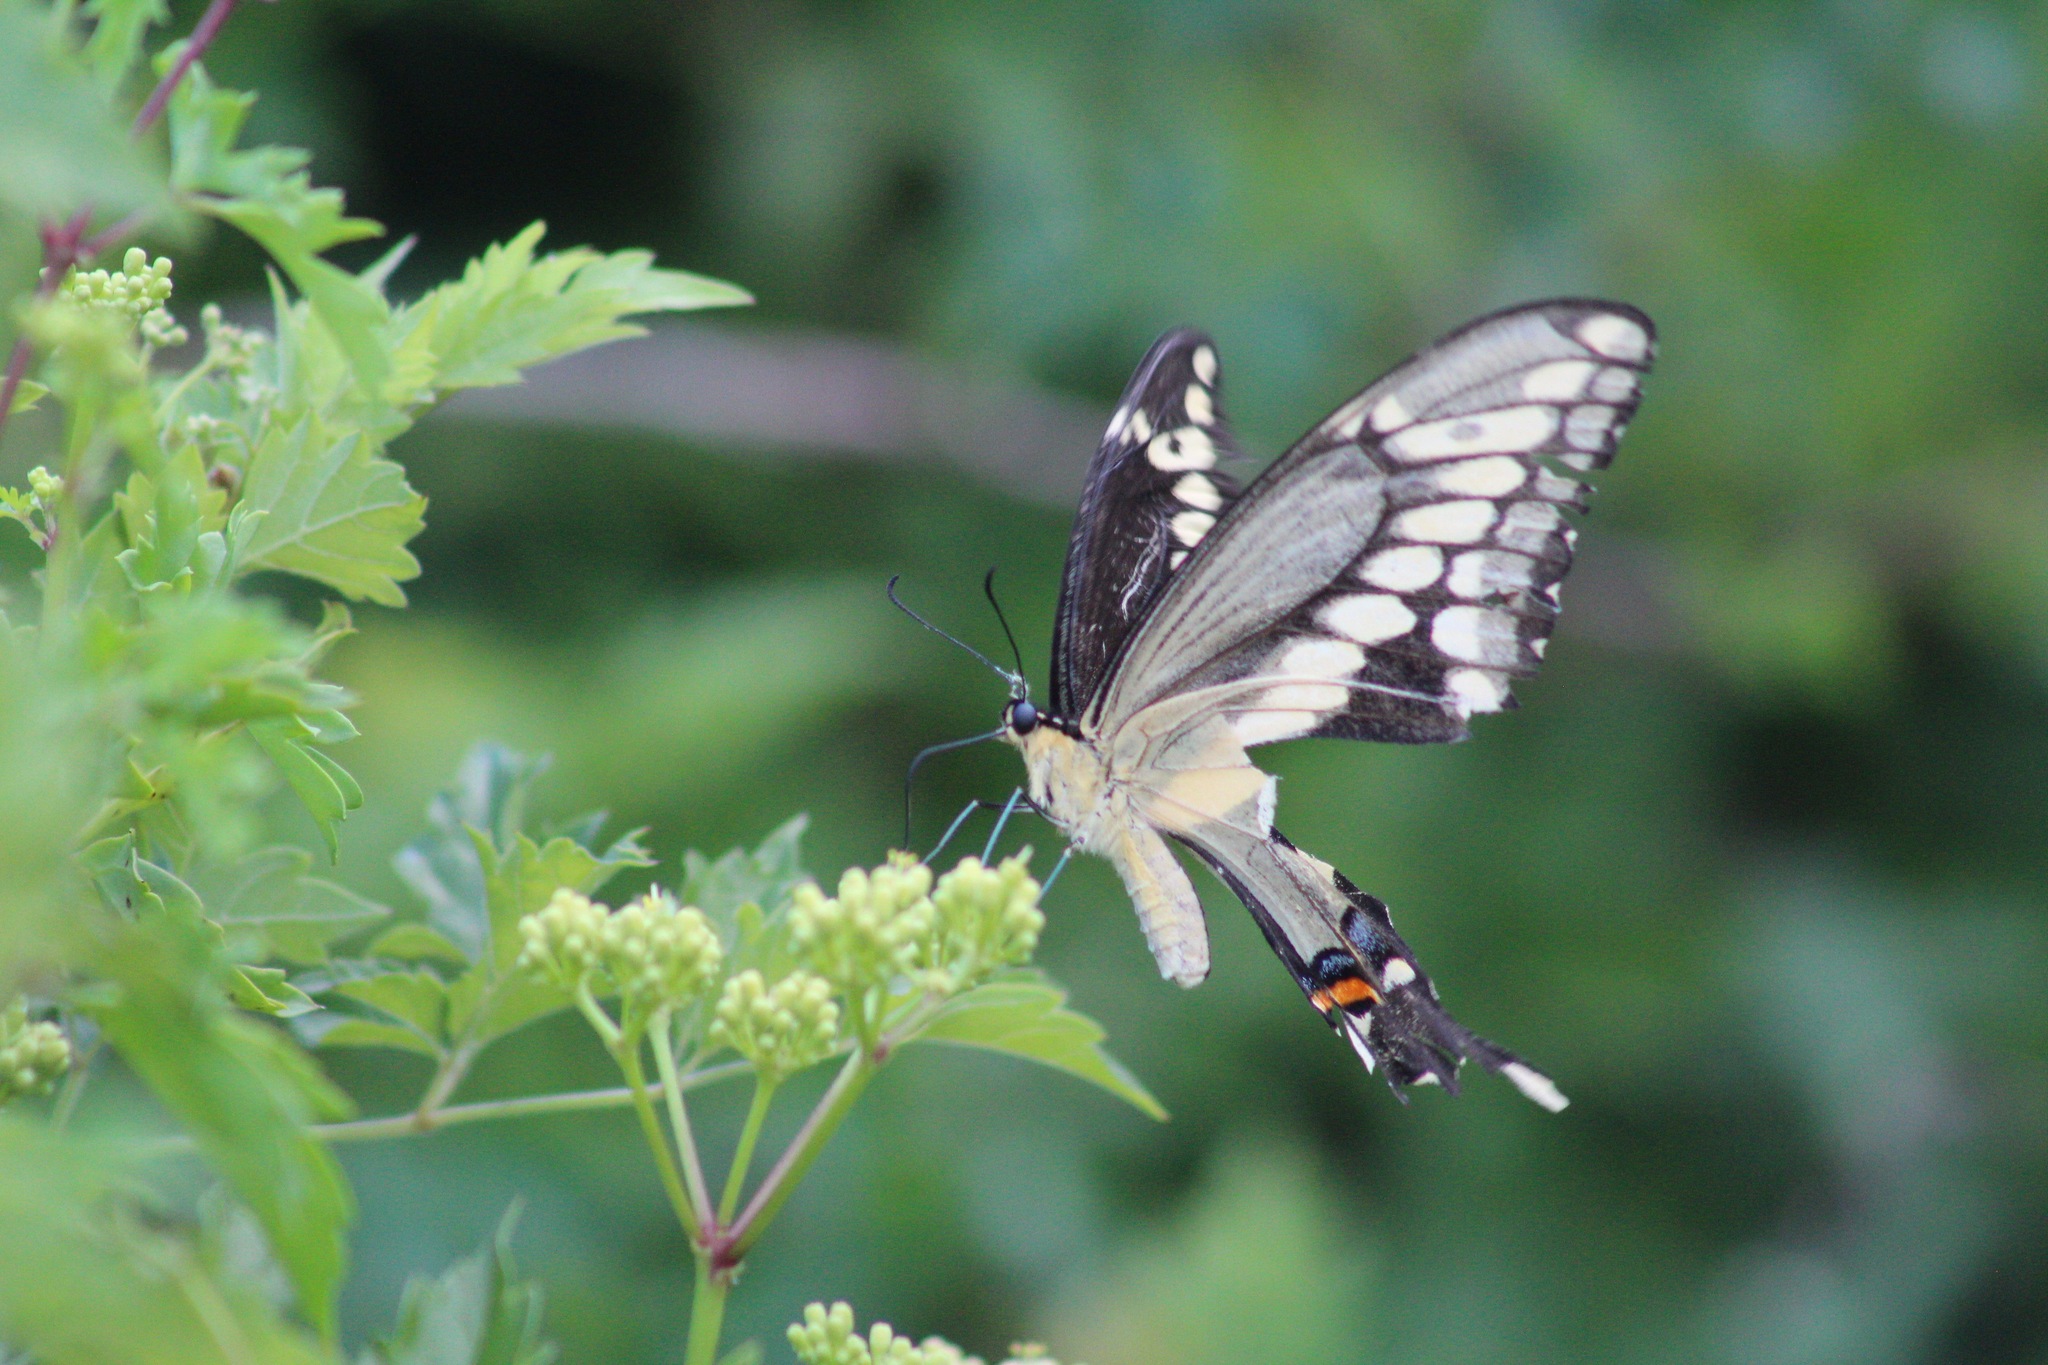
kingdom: Animalia
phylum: Arthropoda
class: Insecta
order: Lepidoptera
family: Papilionidae
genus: Papilio
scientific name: Papilio cresphontes
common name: Giant swallowtail
